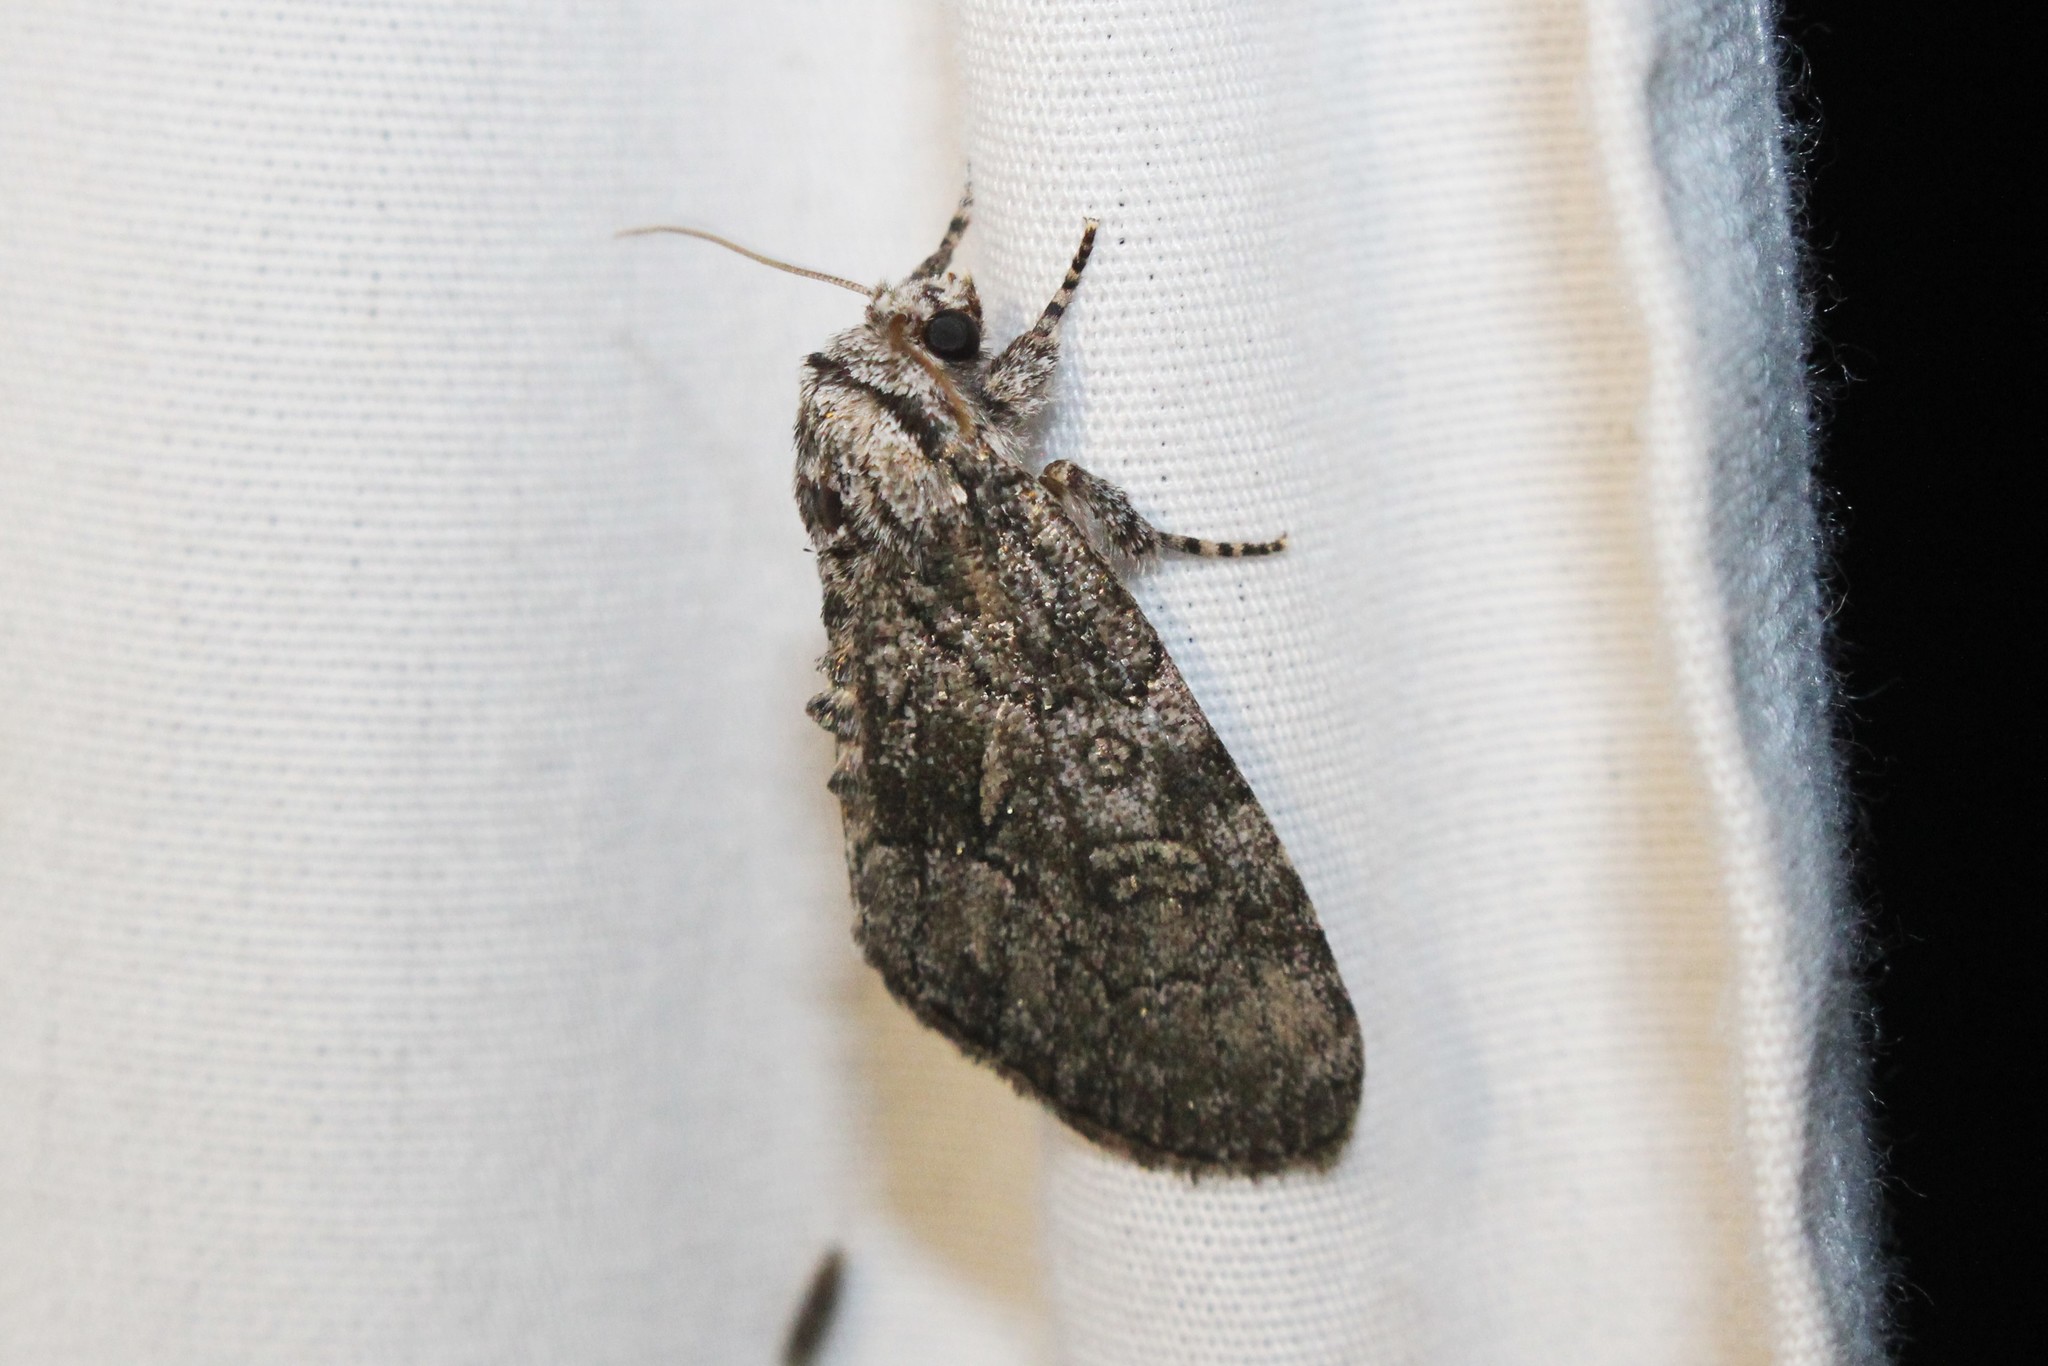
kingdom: Animalia
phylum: Arthropoda
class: Insecta
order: Lepidoptera
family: Noctuidae
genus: Raphia
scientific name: Raphia frater
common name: Brother
